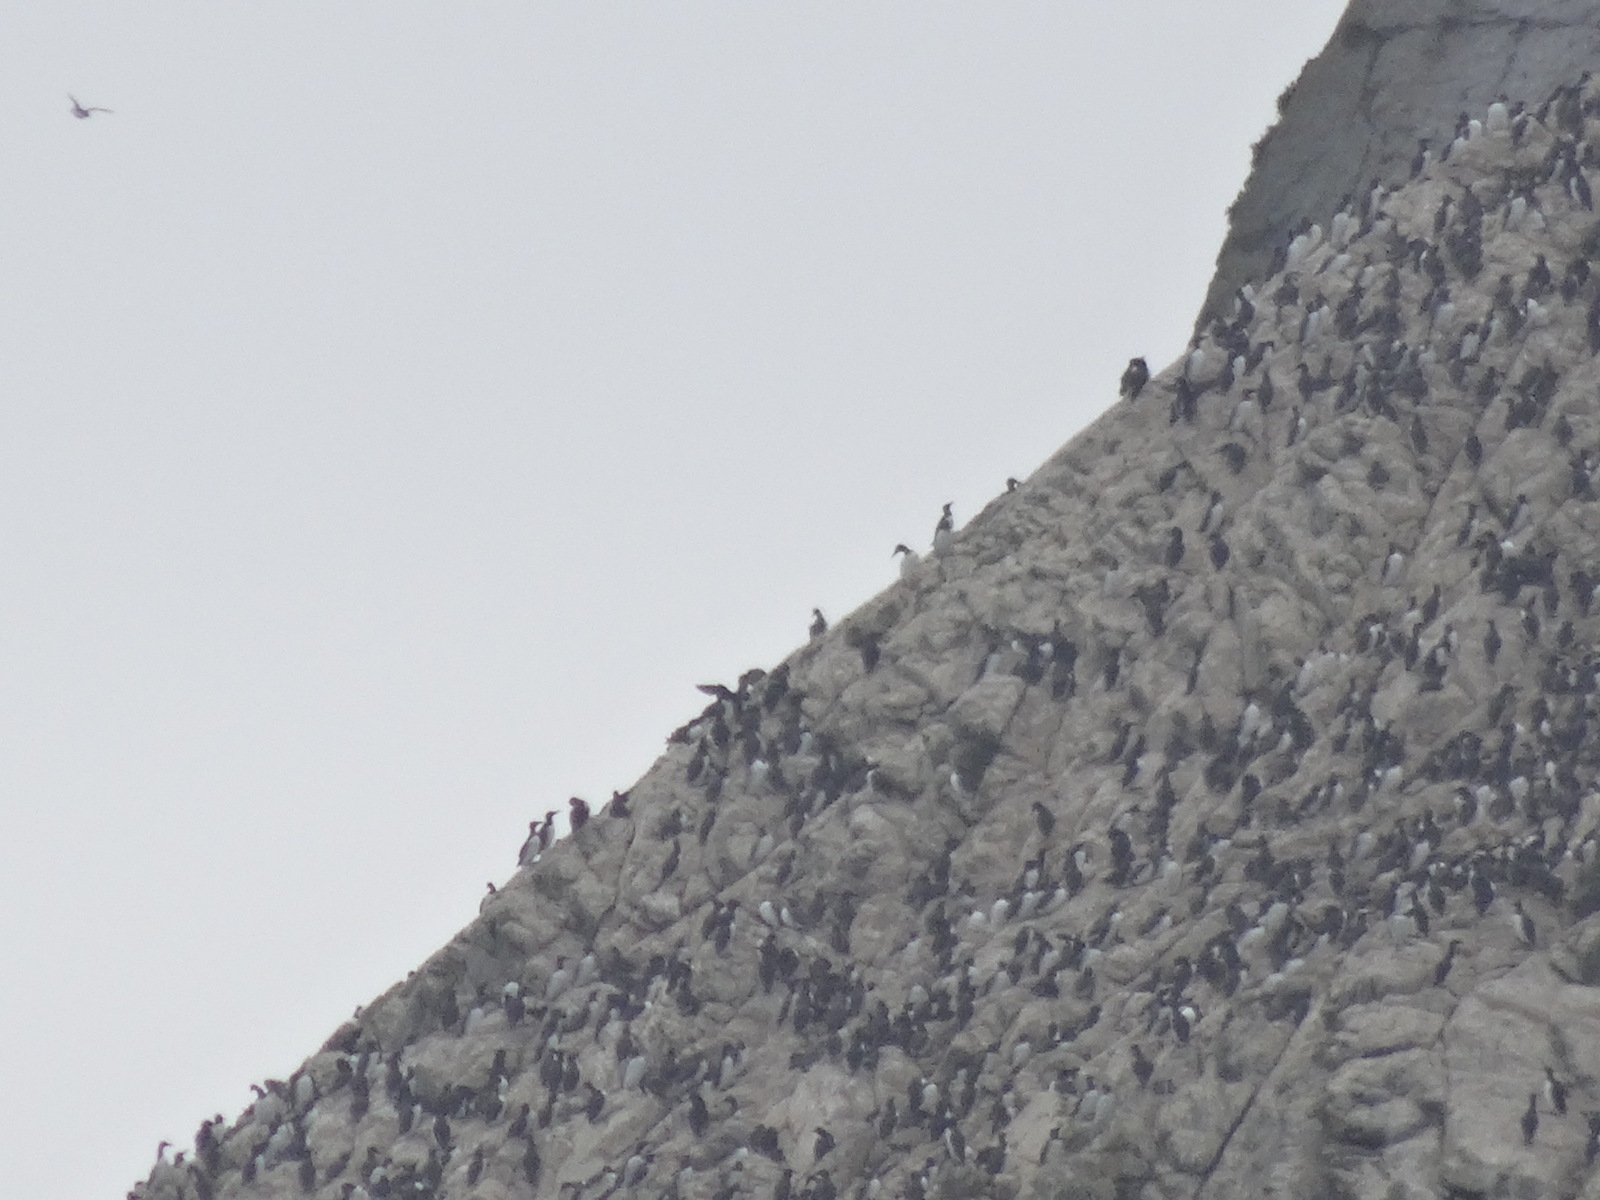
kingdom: Animalia
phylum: Chordata
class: Aves
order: Charadriiformes
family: Alcidae
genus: Uria
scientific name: Uria aalge
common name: Common murre
